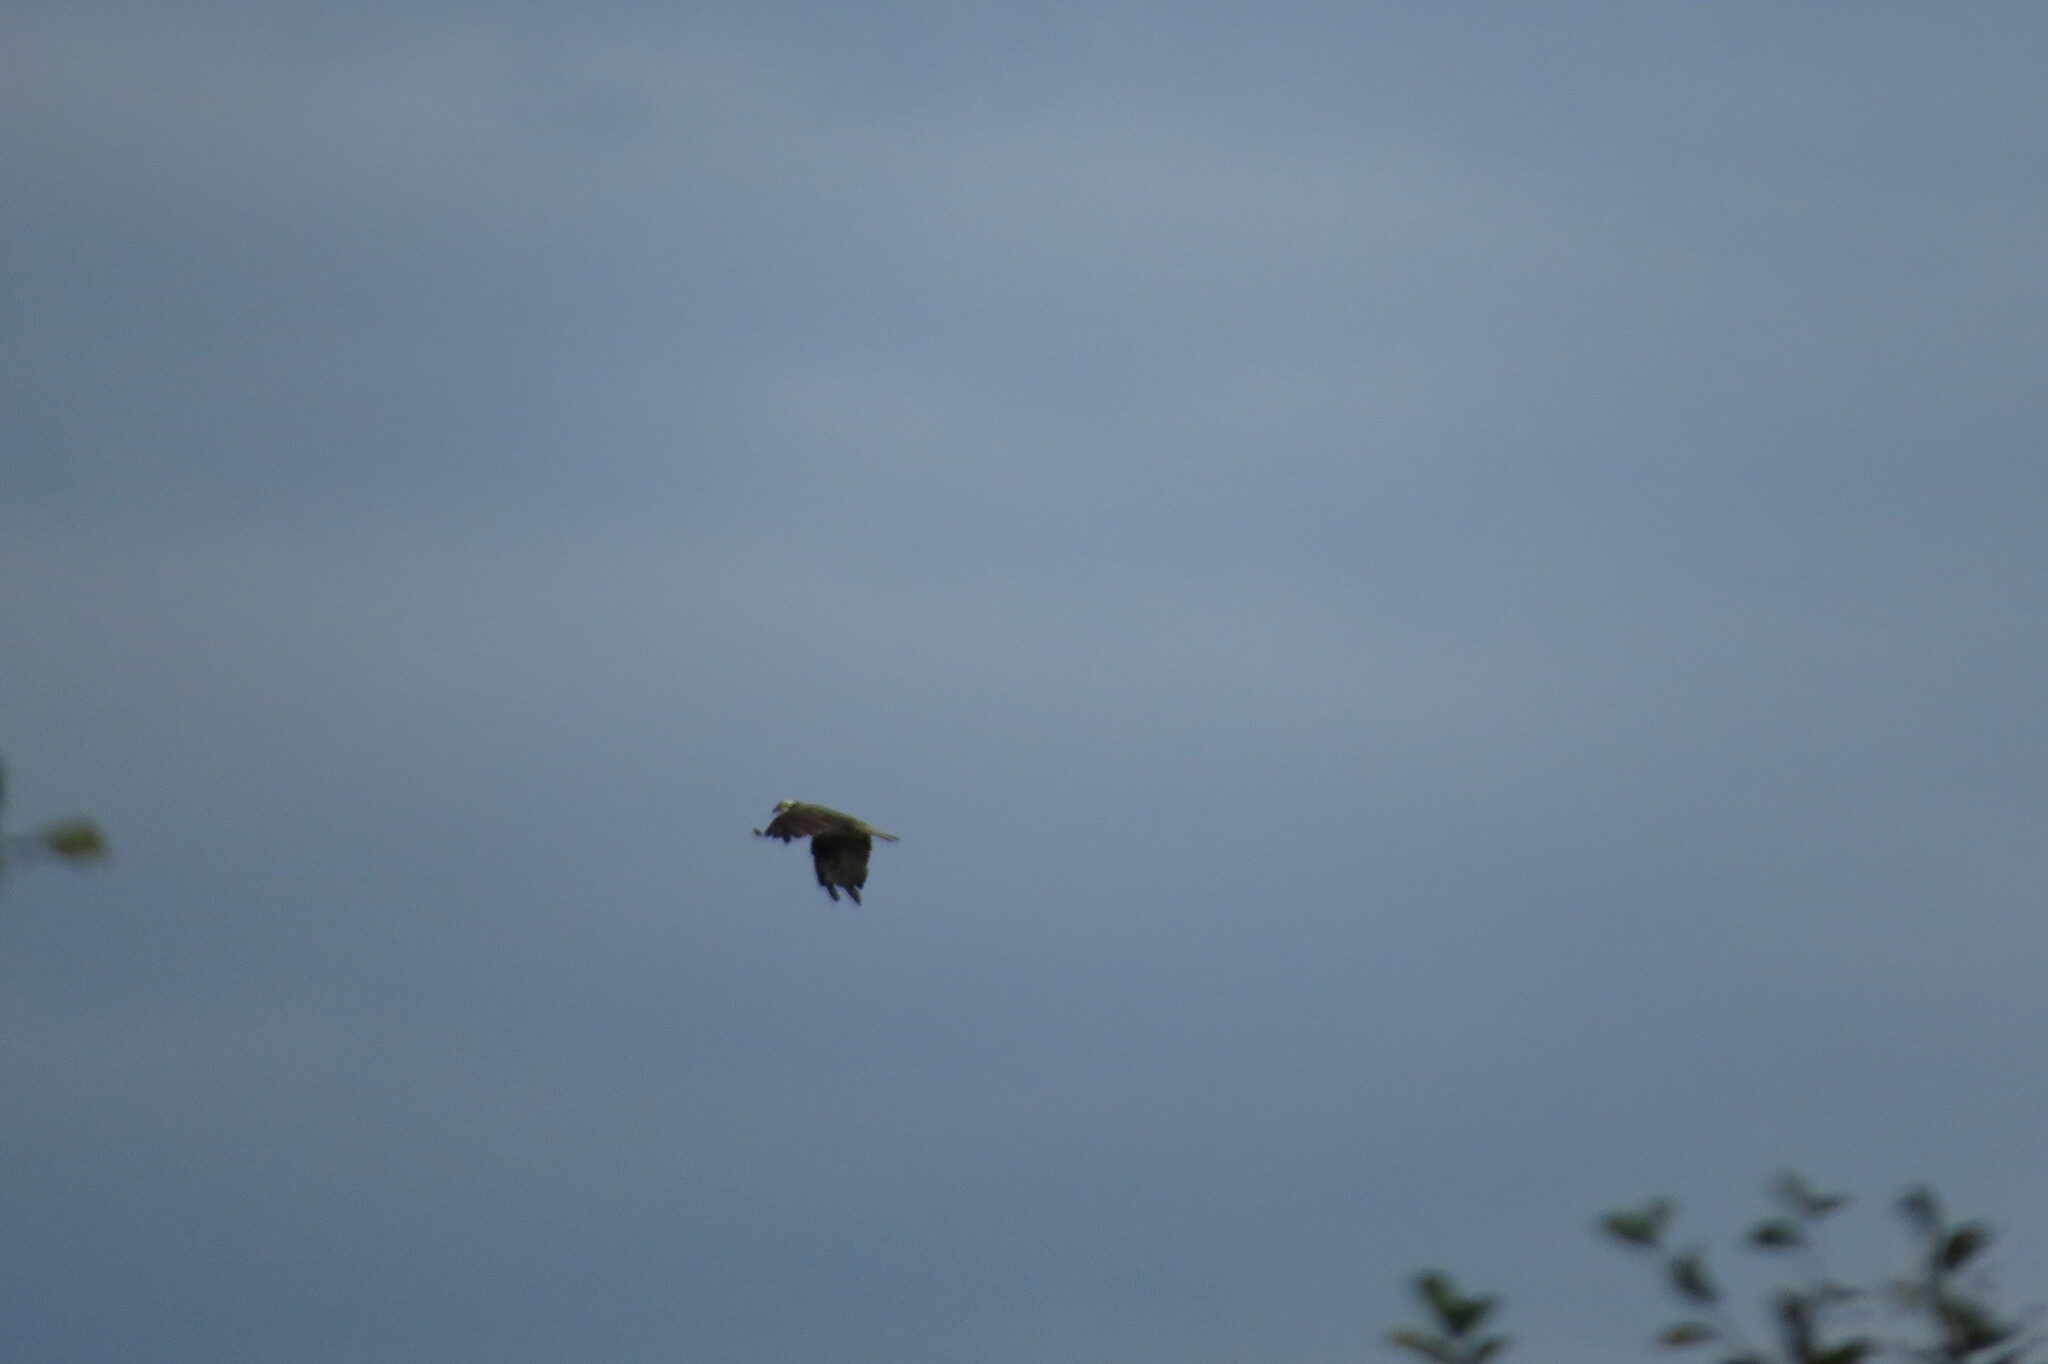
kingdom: Animalia
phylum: Chordata
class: Aves
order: Accipitriformes
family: Pandionidae
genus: Pandion
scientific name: Pandion haliaetus
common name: Osprey
